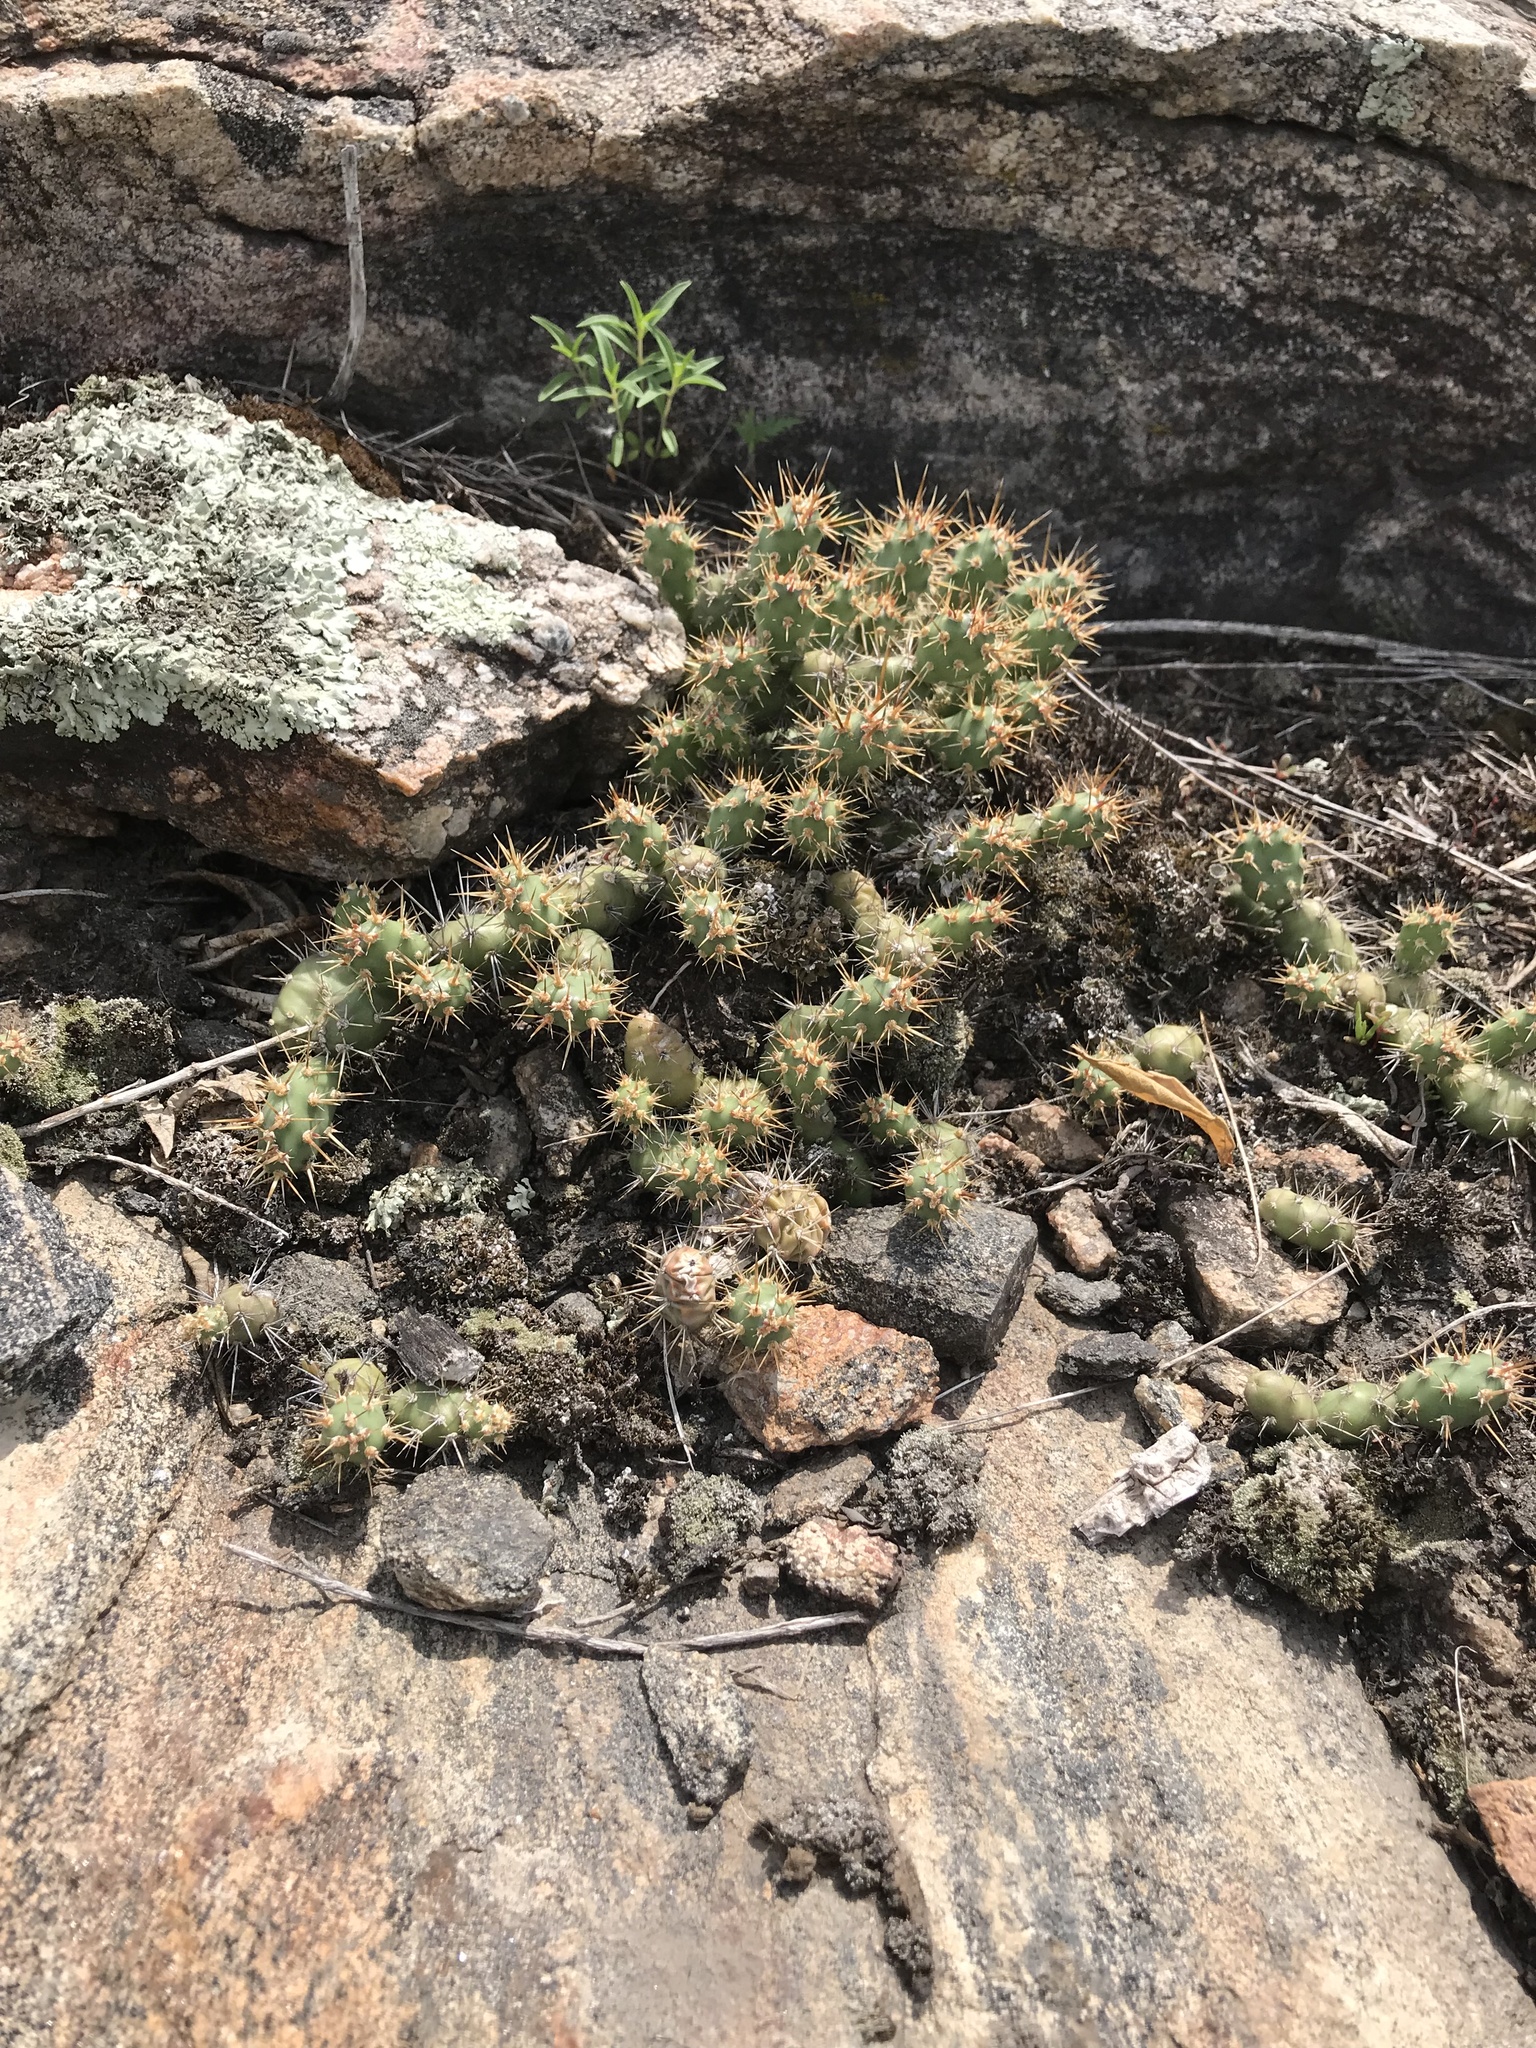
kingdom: Plantae
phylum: Tracheophyta
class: Magnoliopsida
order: Caryophyllales
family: Cactaceae
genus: Opuntia
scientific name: Opuntia fragilis
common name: Brittle cactus
